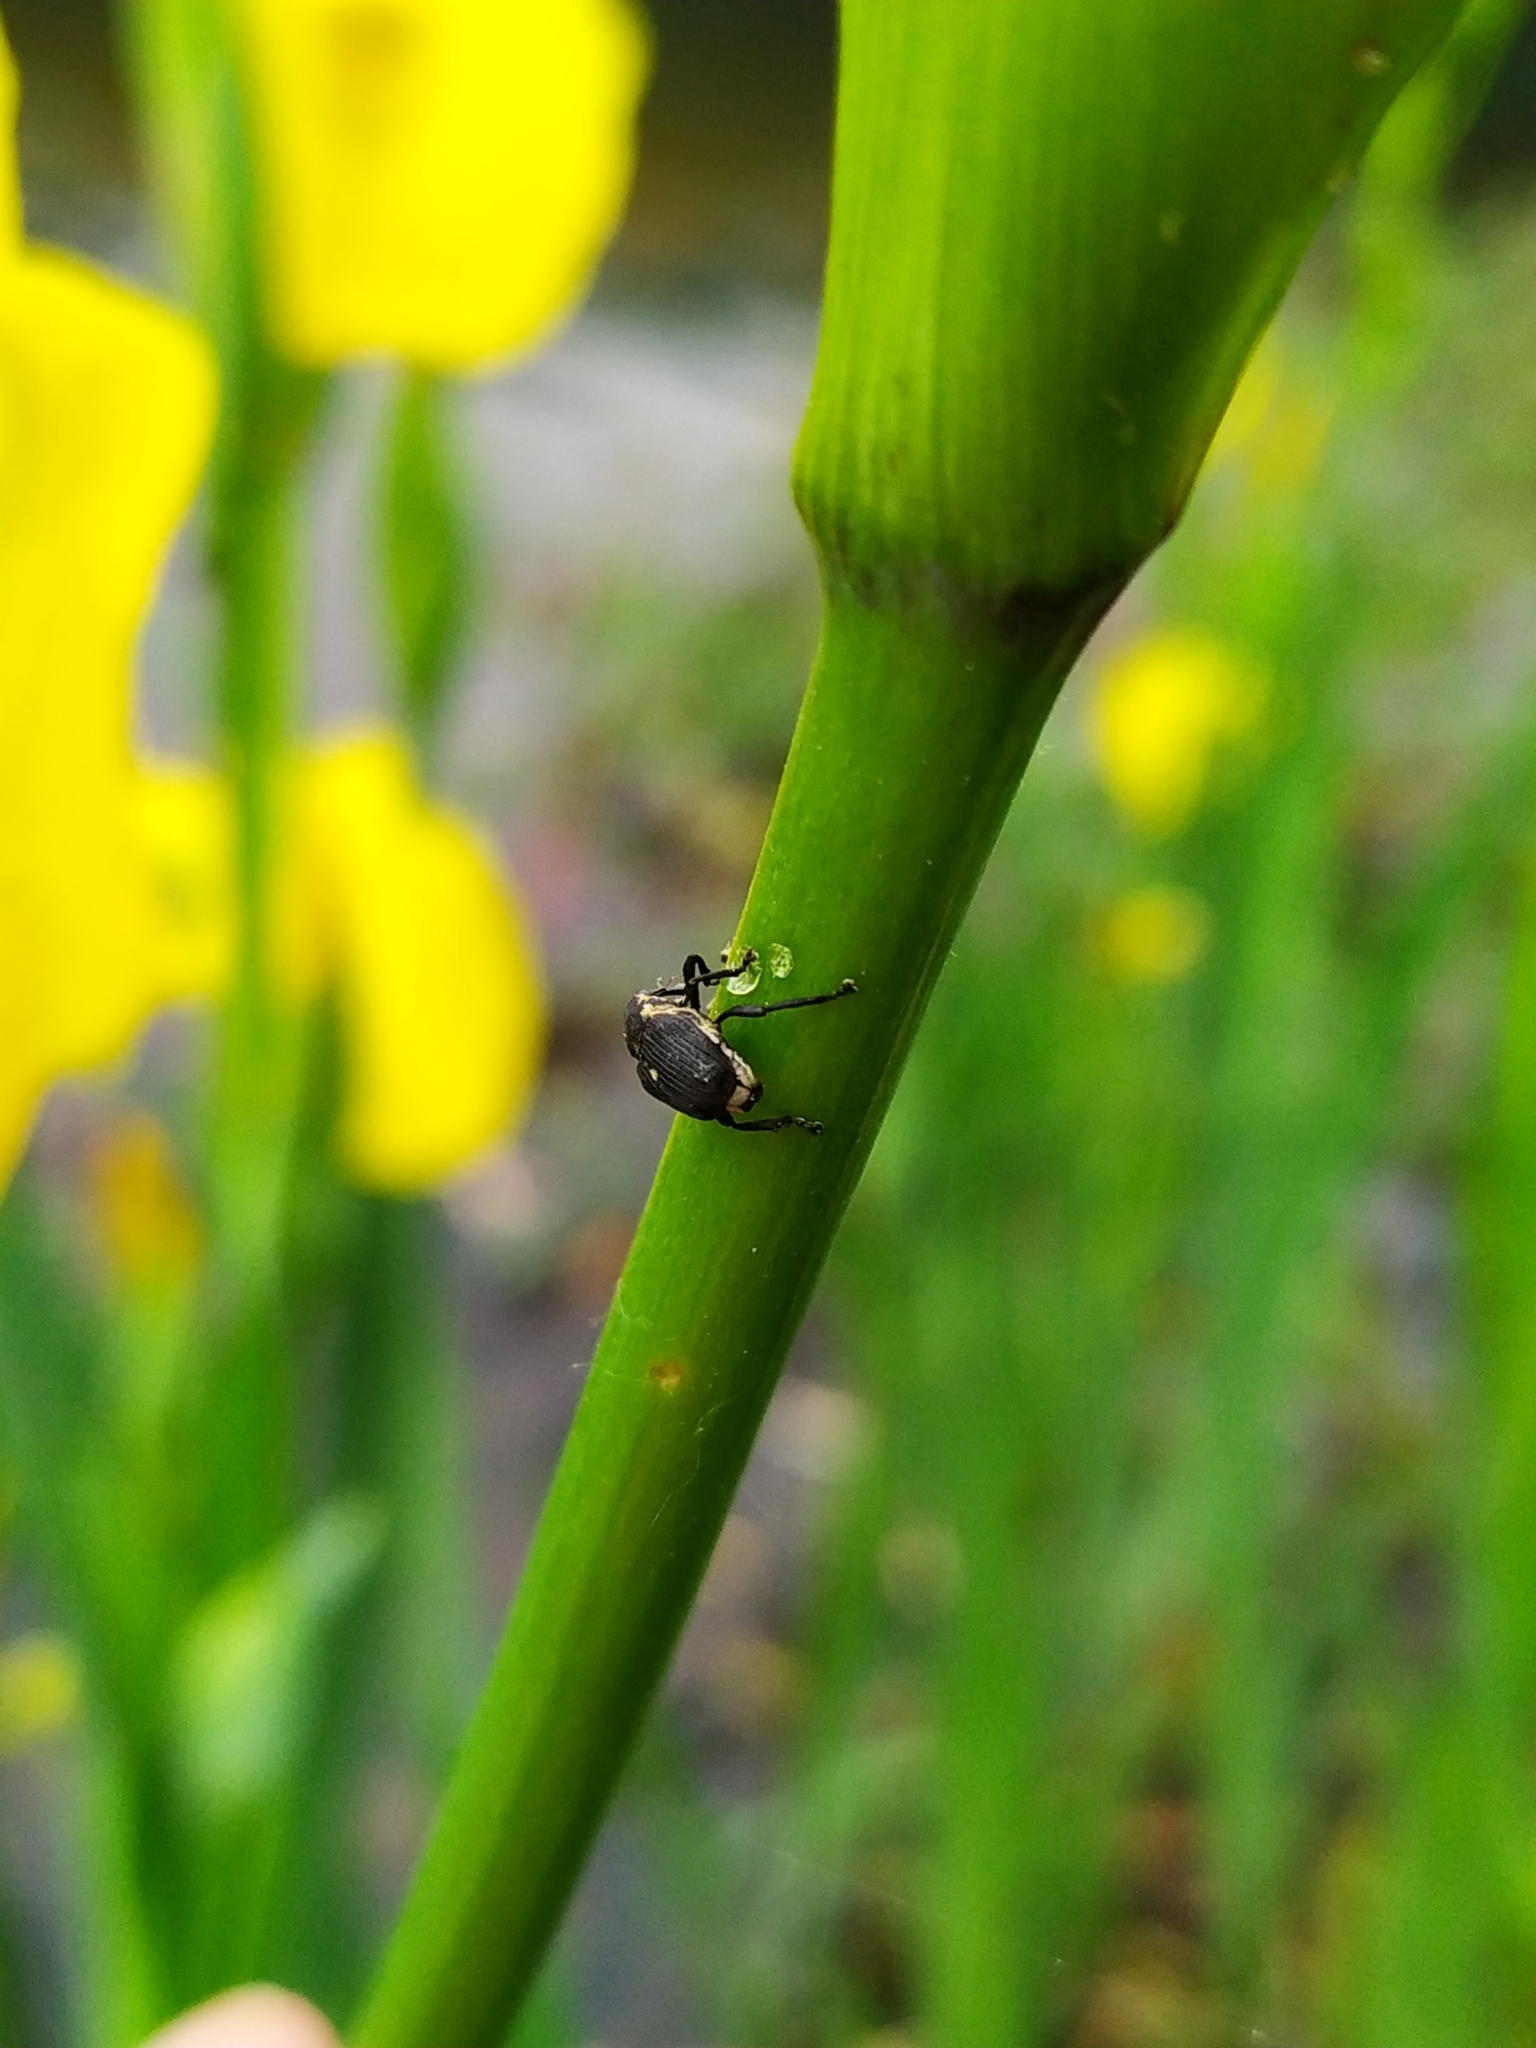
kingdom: Animalia
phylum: Arthropoda
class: Insecta
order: Coleoptera
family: Curculionidae
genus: Mononychus
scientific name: Mononychus punctumalbum
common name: Iris weevil
